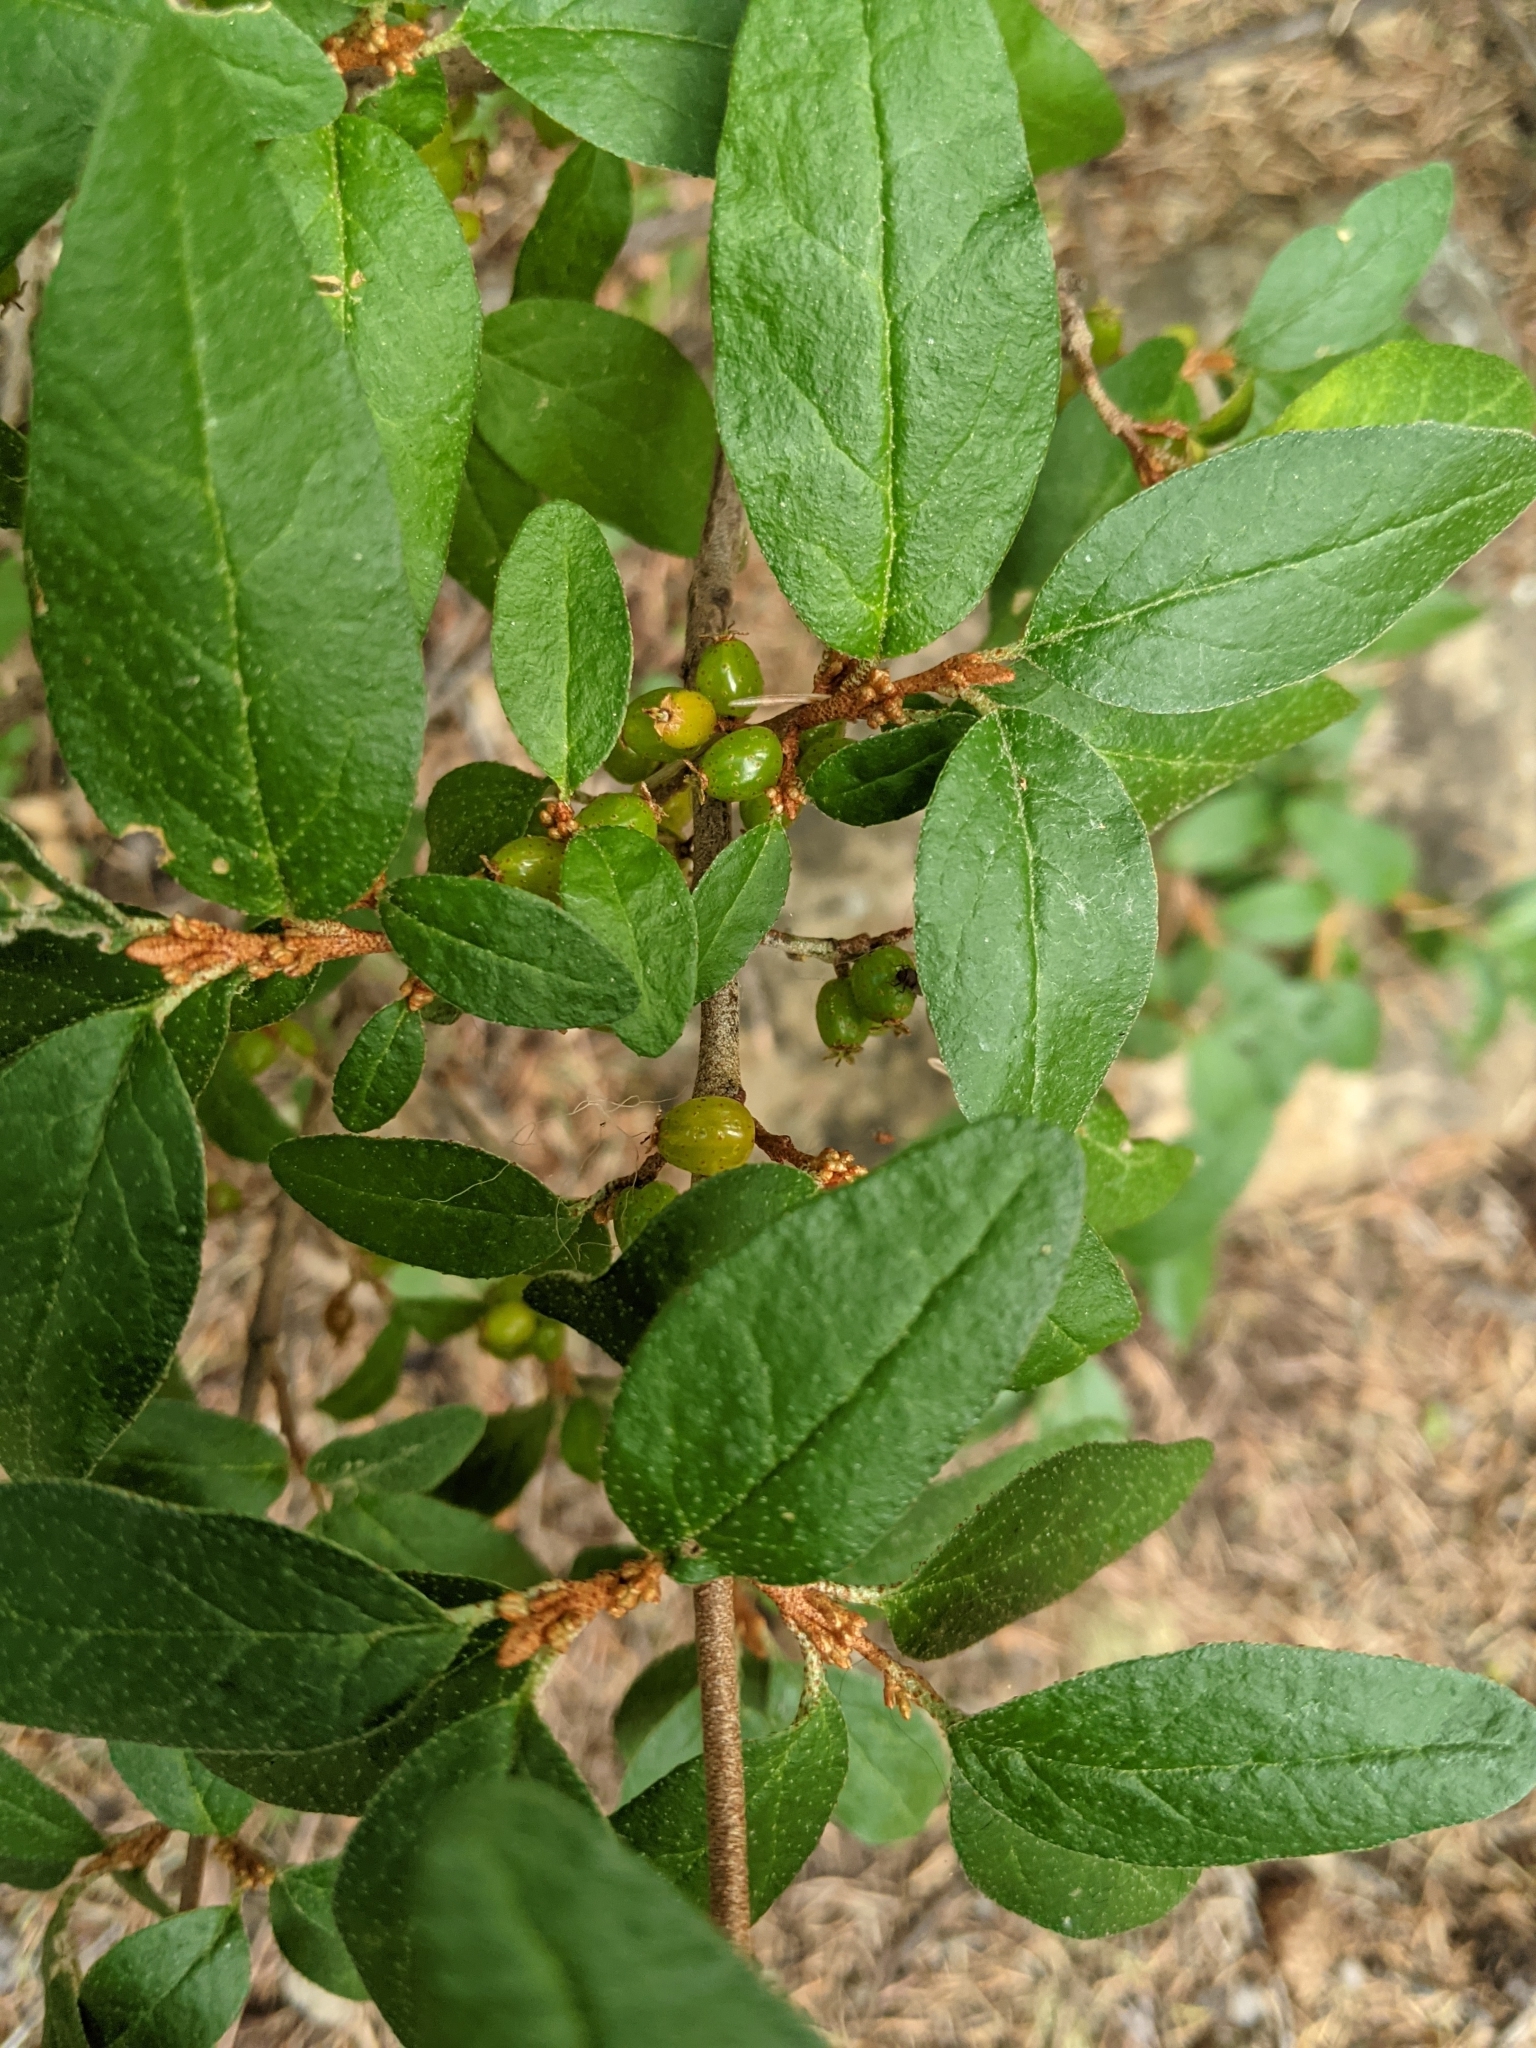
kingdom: Plantae
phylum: Tracheophyta
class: Magnoliopsida
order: Rosales
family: Elaeagnaceae
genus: Shepherdia
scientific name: Shepherdia canadensis
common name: Soapberry
